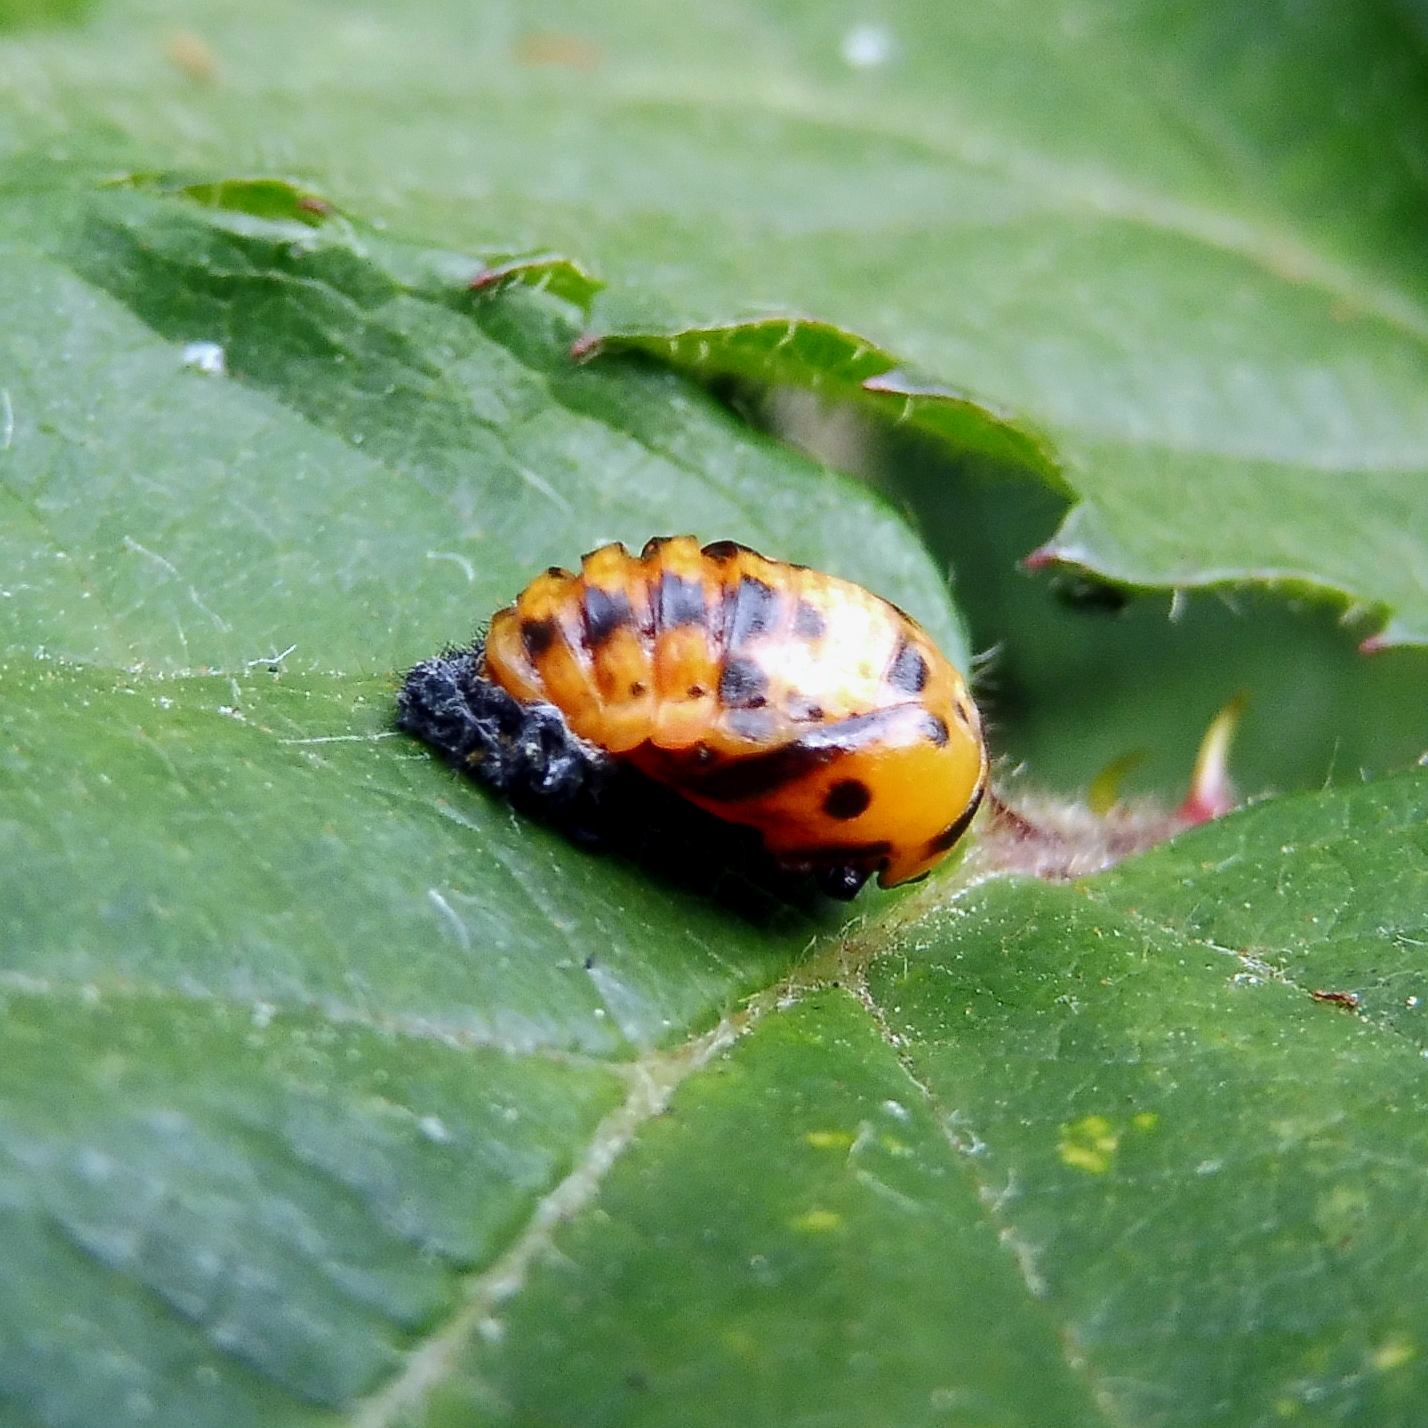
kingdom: Animalia
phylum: Arthropoda
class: Insecta
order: Coleoptera
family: Coccinellidae
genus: Coccinella
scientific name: Coccinella septempunctata
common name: Sevenspotted lady beetle
